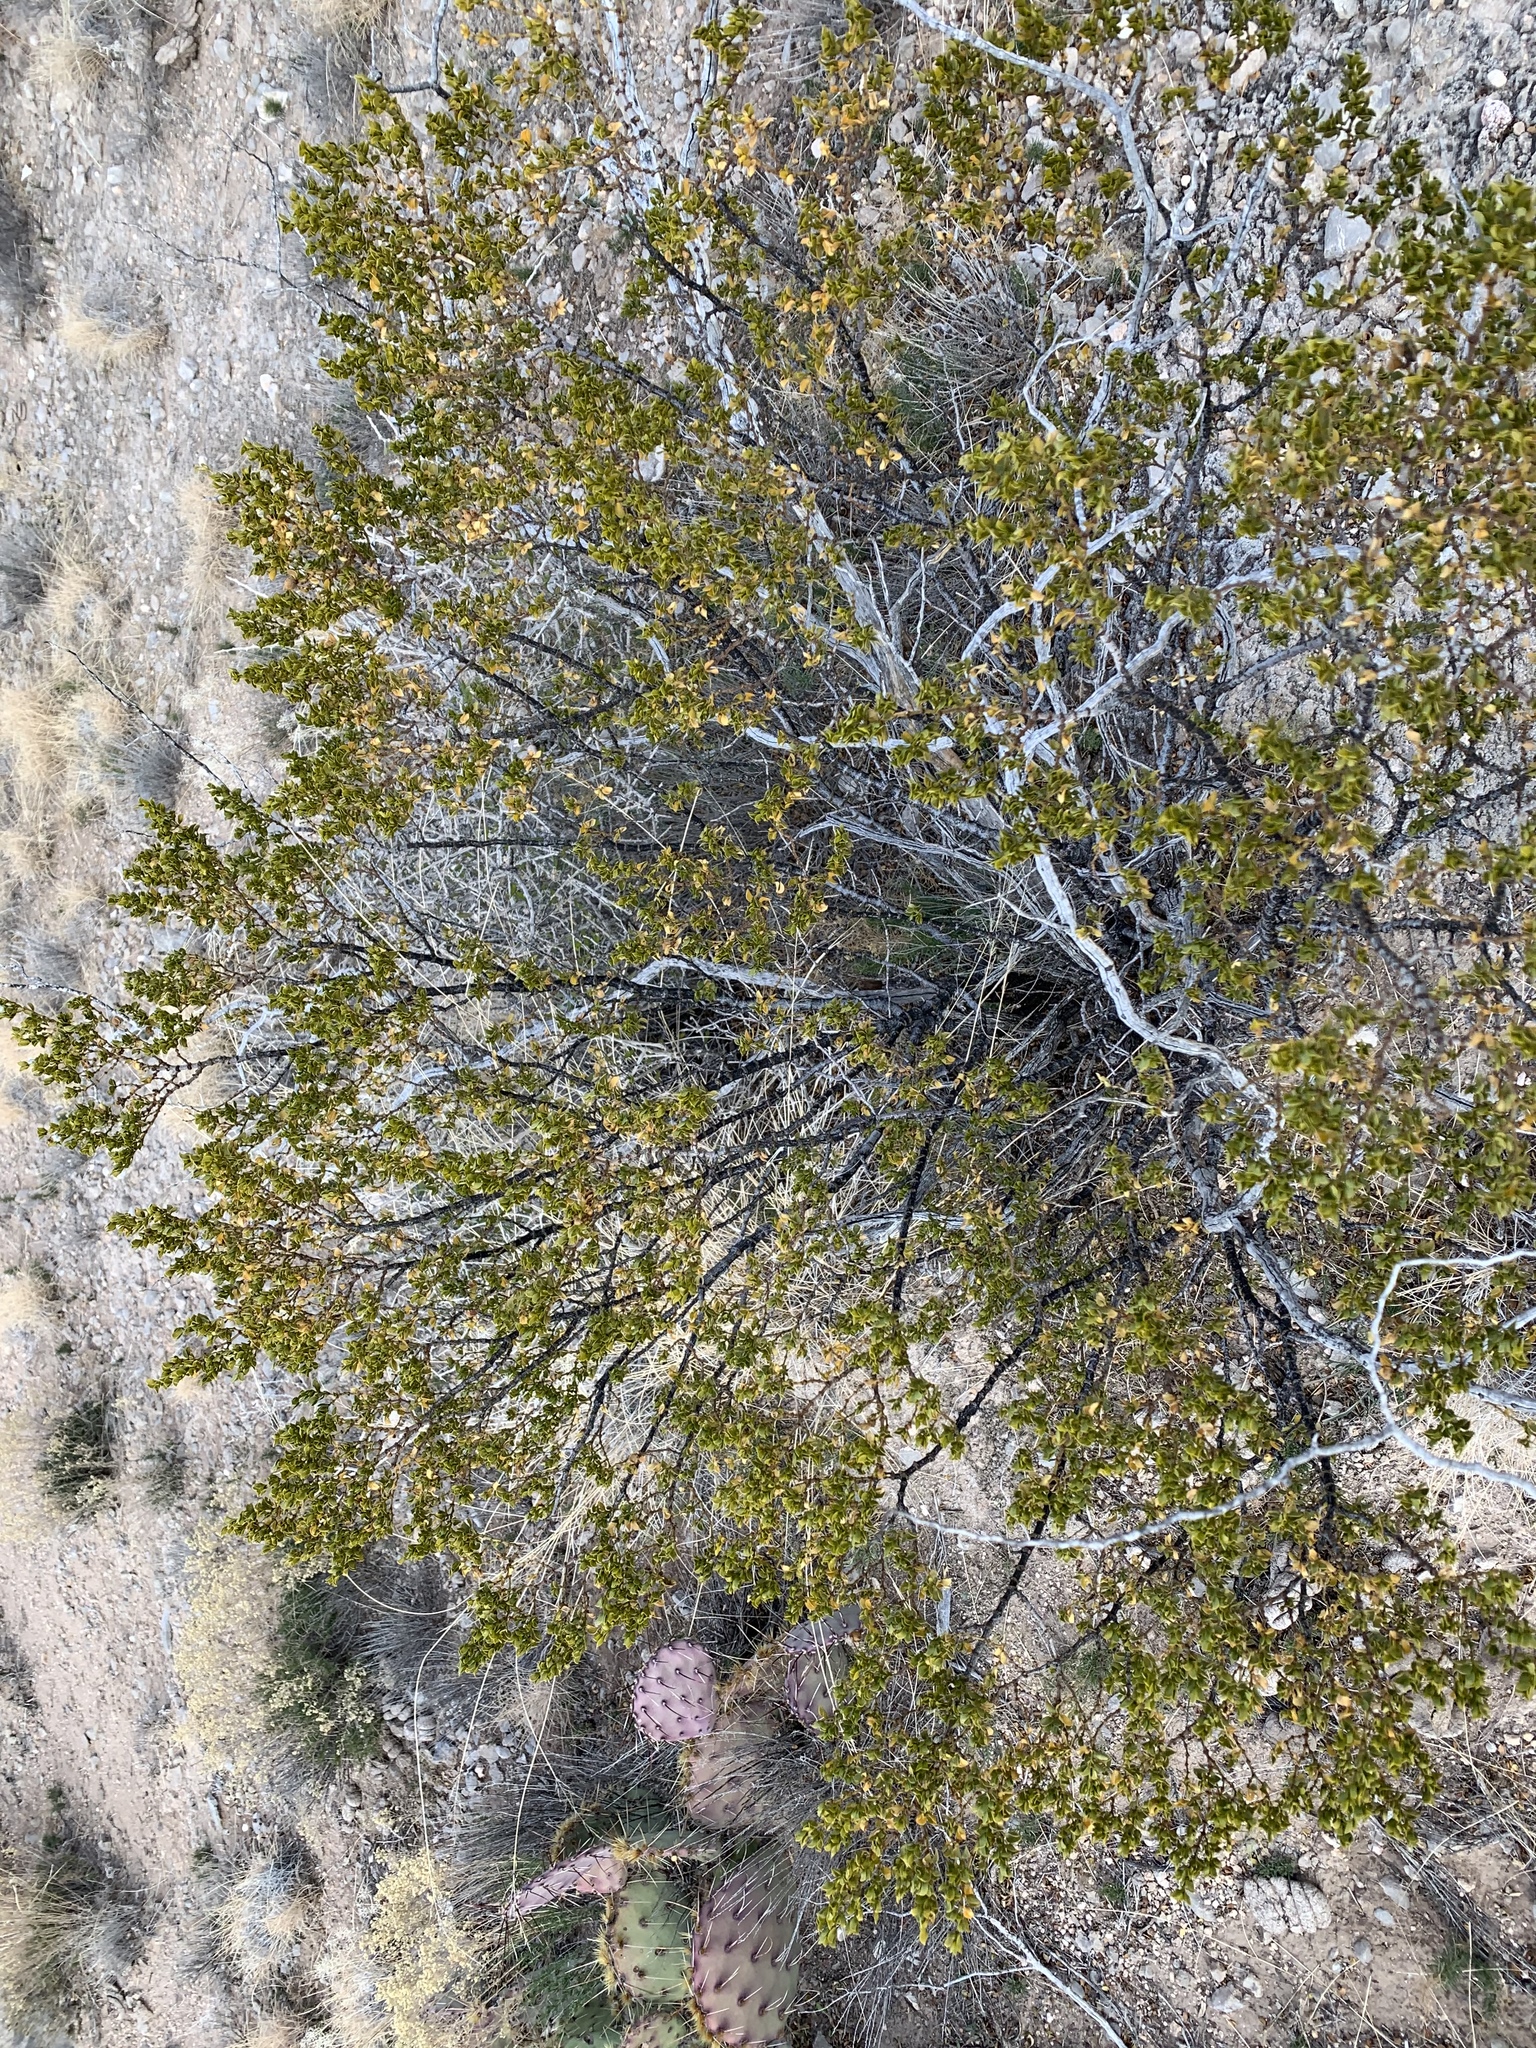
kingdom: Plantae
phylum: Tracheophyta
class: Magnoliopsida
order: Zygophyllales
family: Zygophyllaceae
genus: Larrea
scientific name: Larrea tridentata
